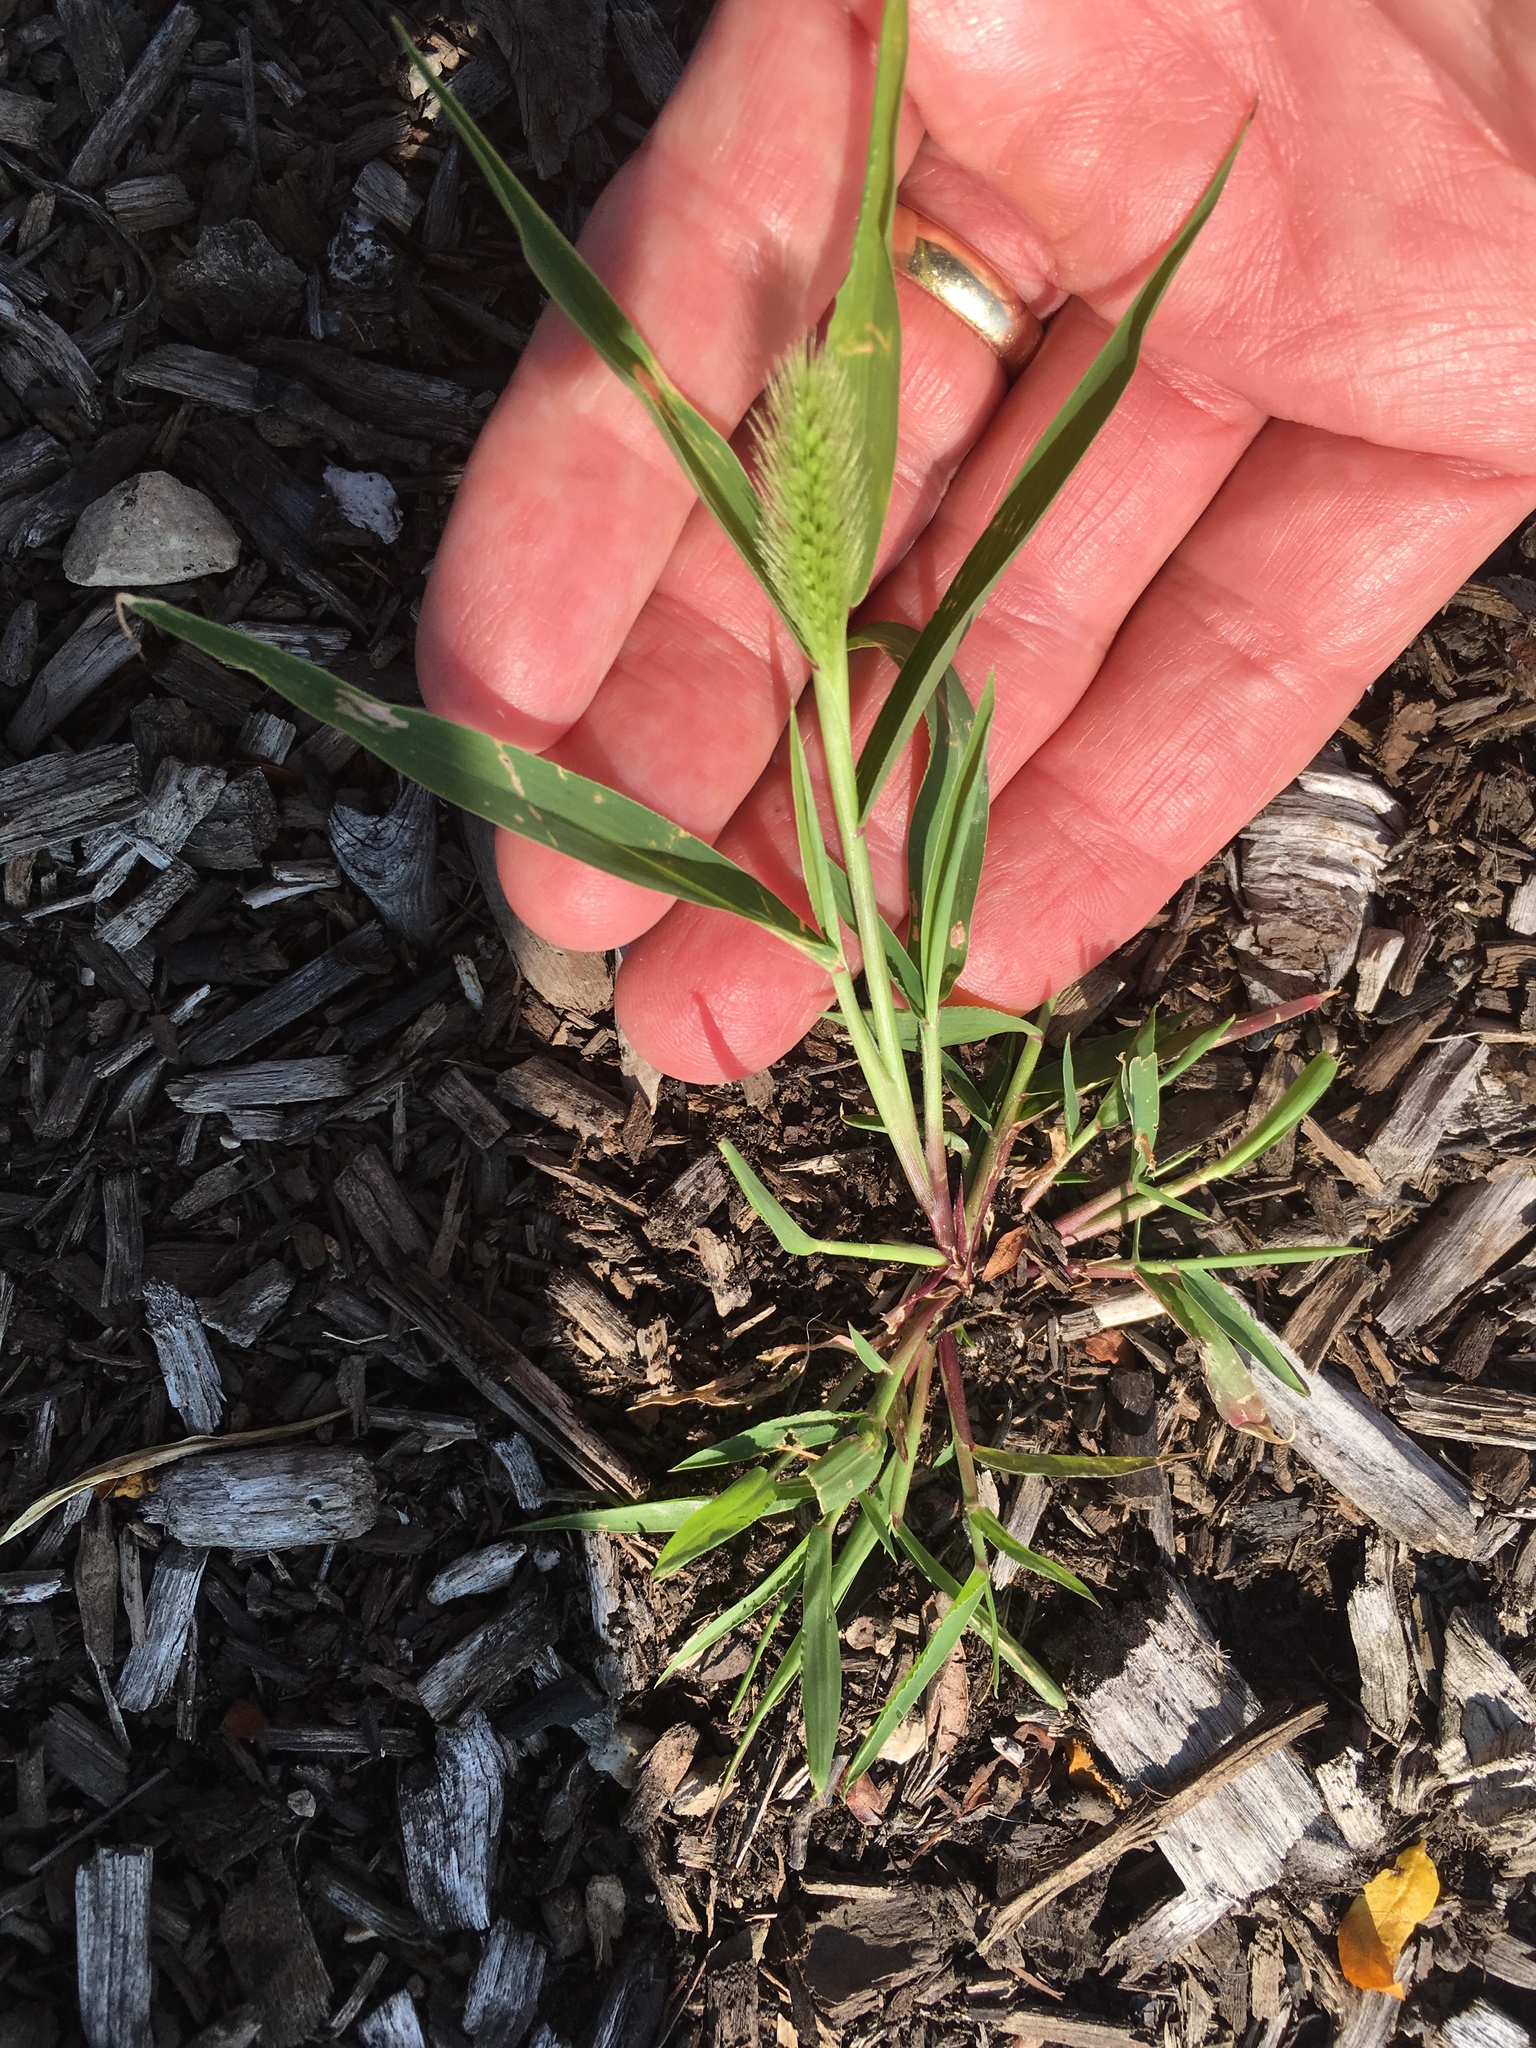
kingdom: Plantae
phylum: Tracheophyta
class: Liliopsida
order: Poales
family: Poaceae
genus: Setaria
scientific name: Setaria viridis
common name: Green bristlegrass
